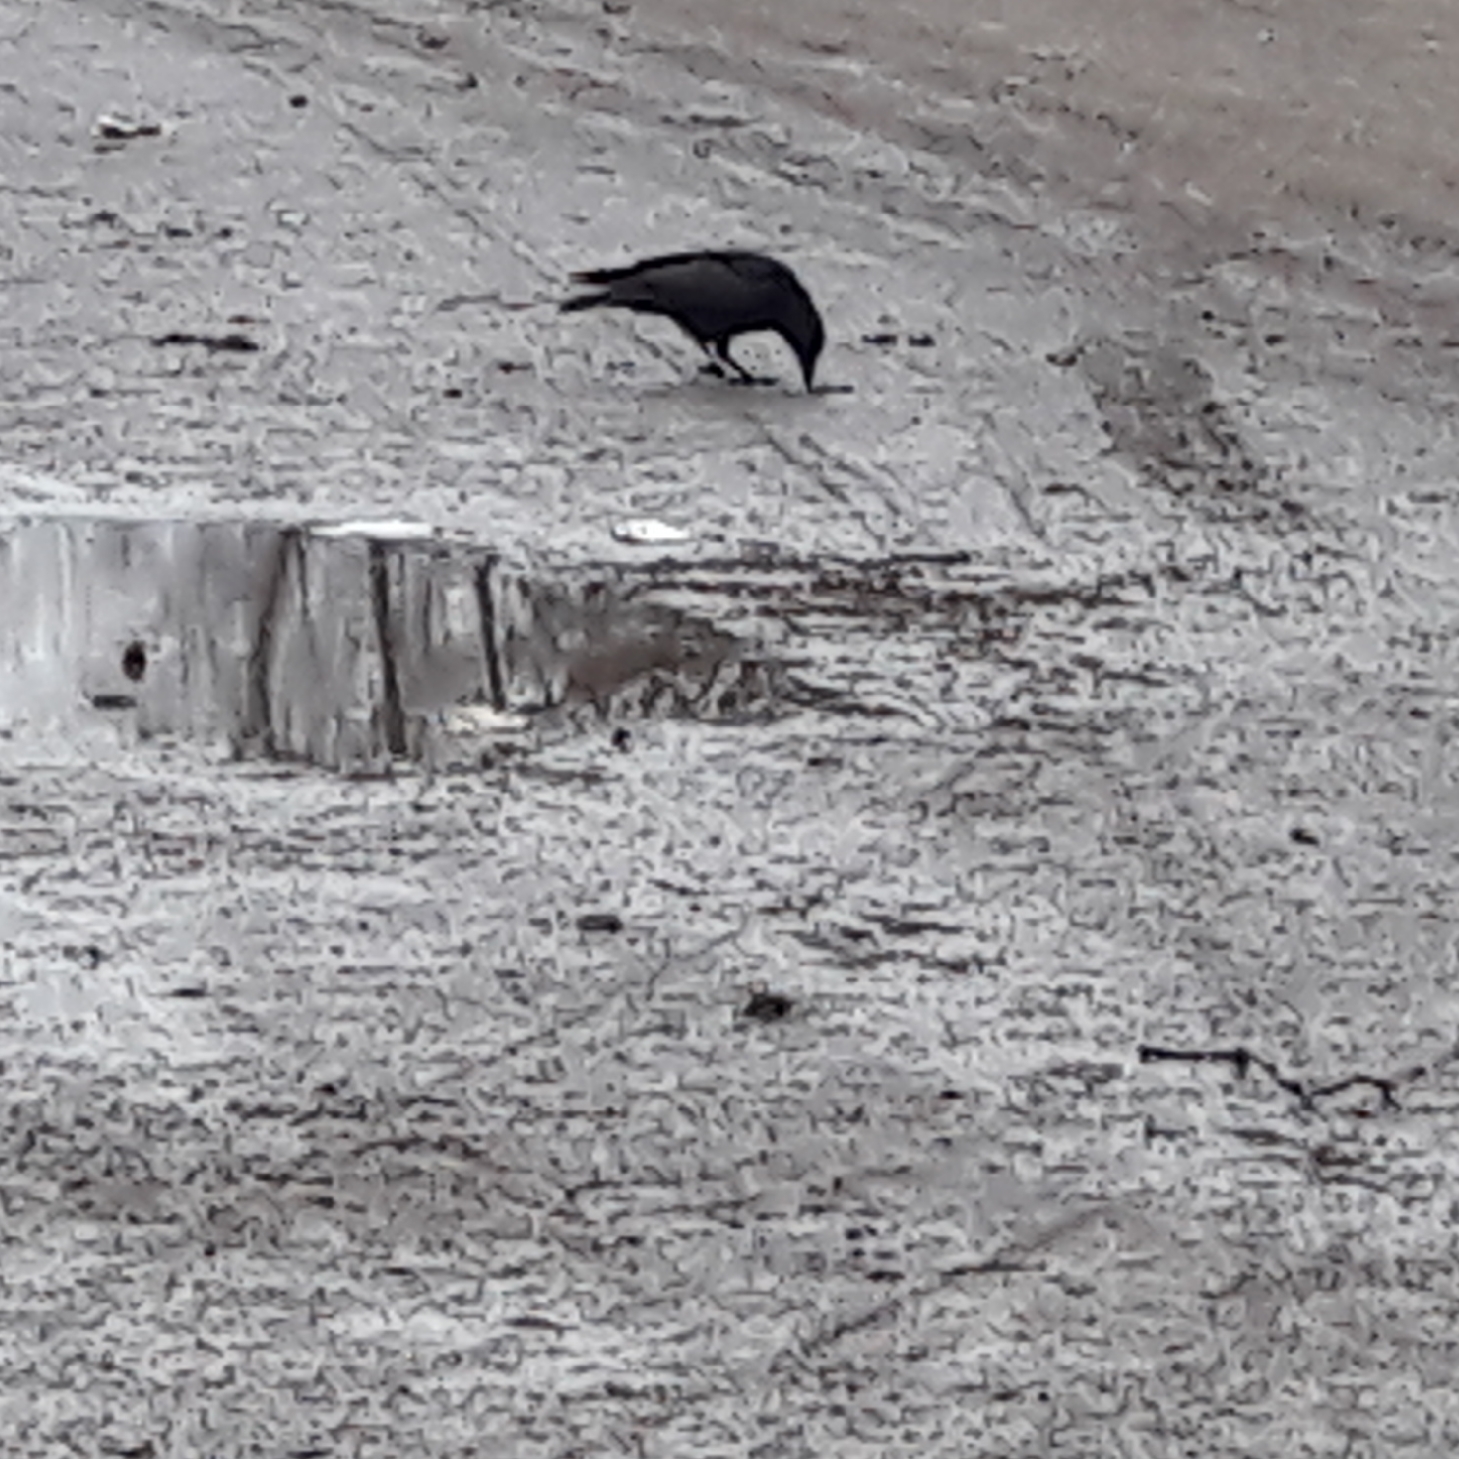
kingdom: Animalia
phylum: Chordata
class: Aves
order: Passeriformes
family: Corvidae
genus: Corvus
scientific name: Corvus corone
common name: Carrion crow
